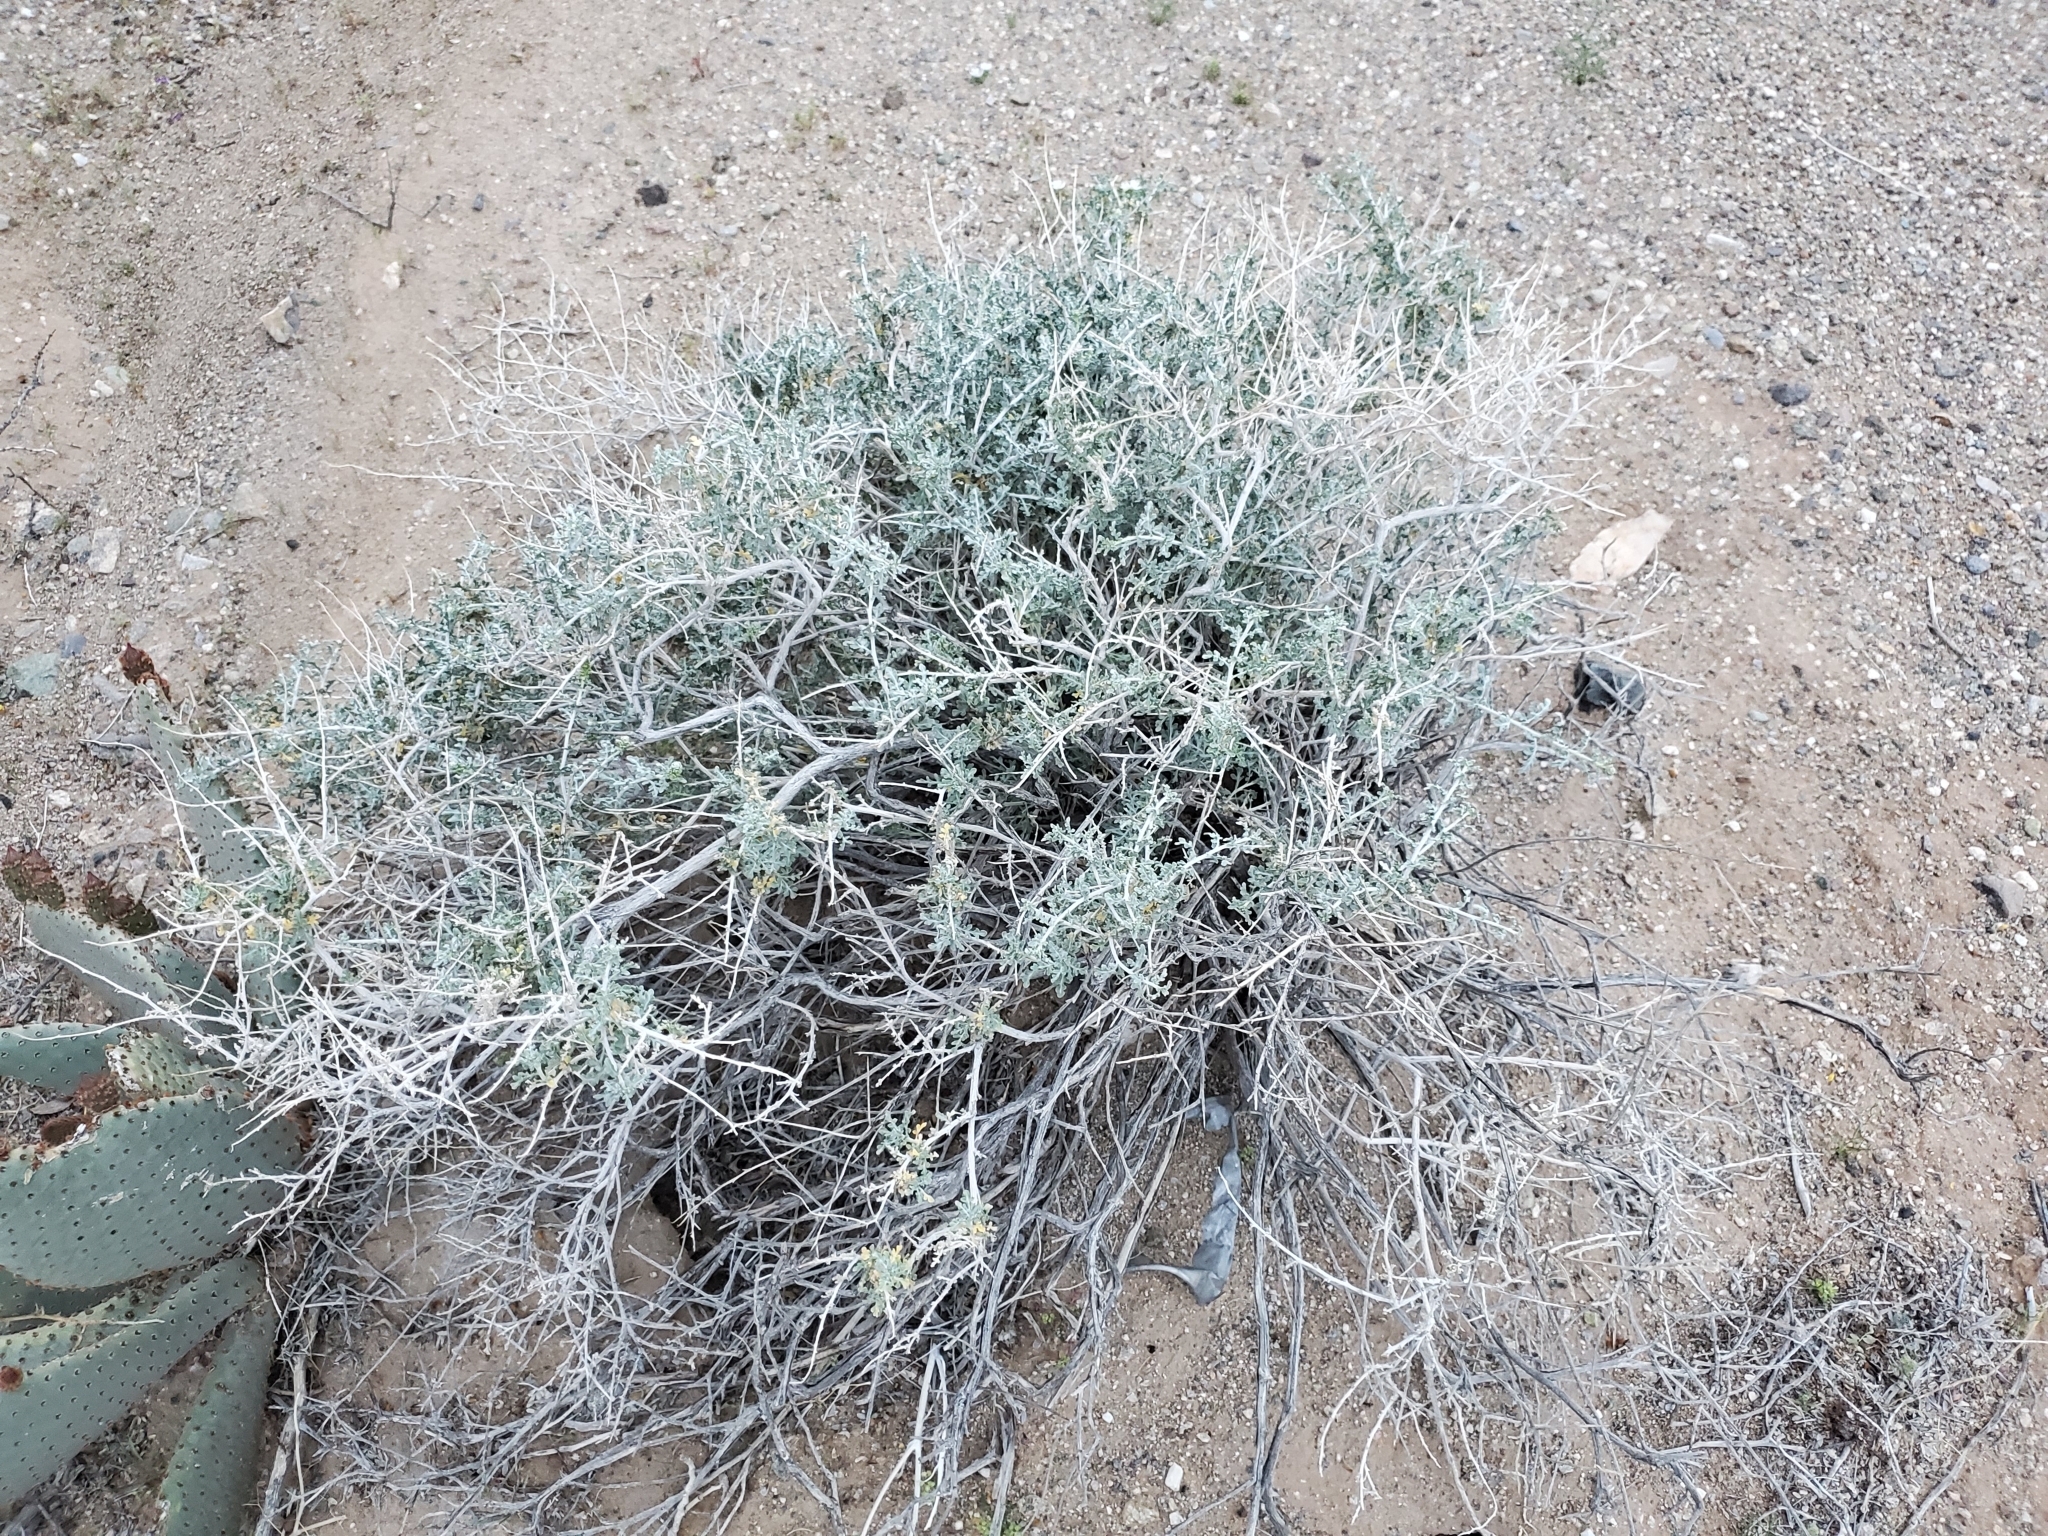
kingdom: Plantae
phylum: Tracheophyta
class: Magnoliopsida
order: Asterales
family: Asteraceae
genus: Ambrosia
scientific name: Ambrosia dumosa
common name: Bur-sage
